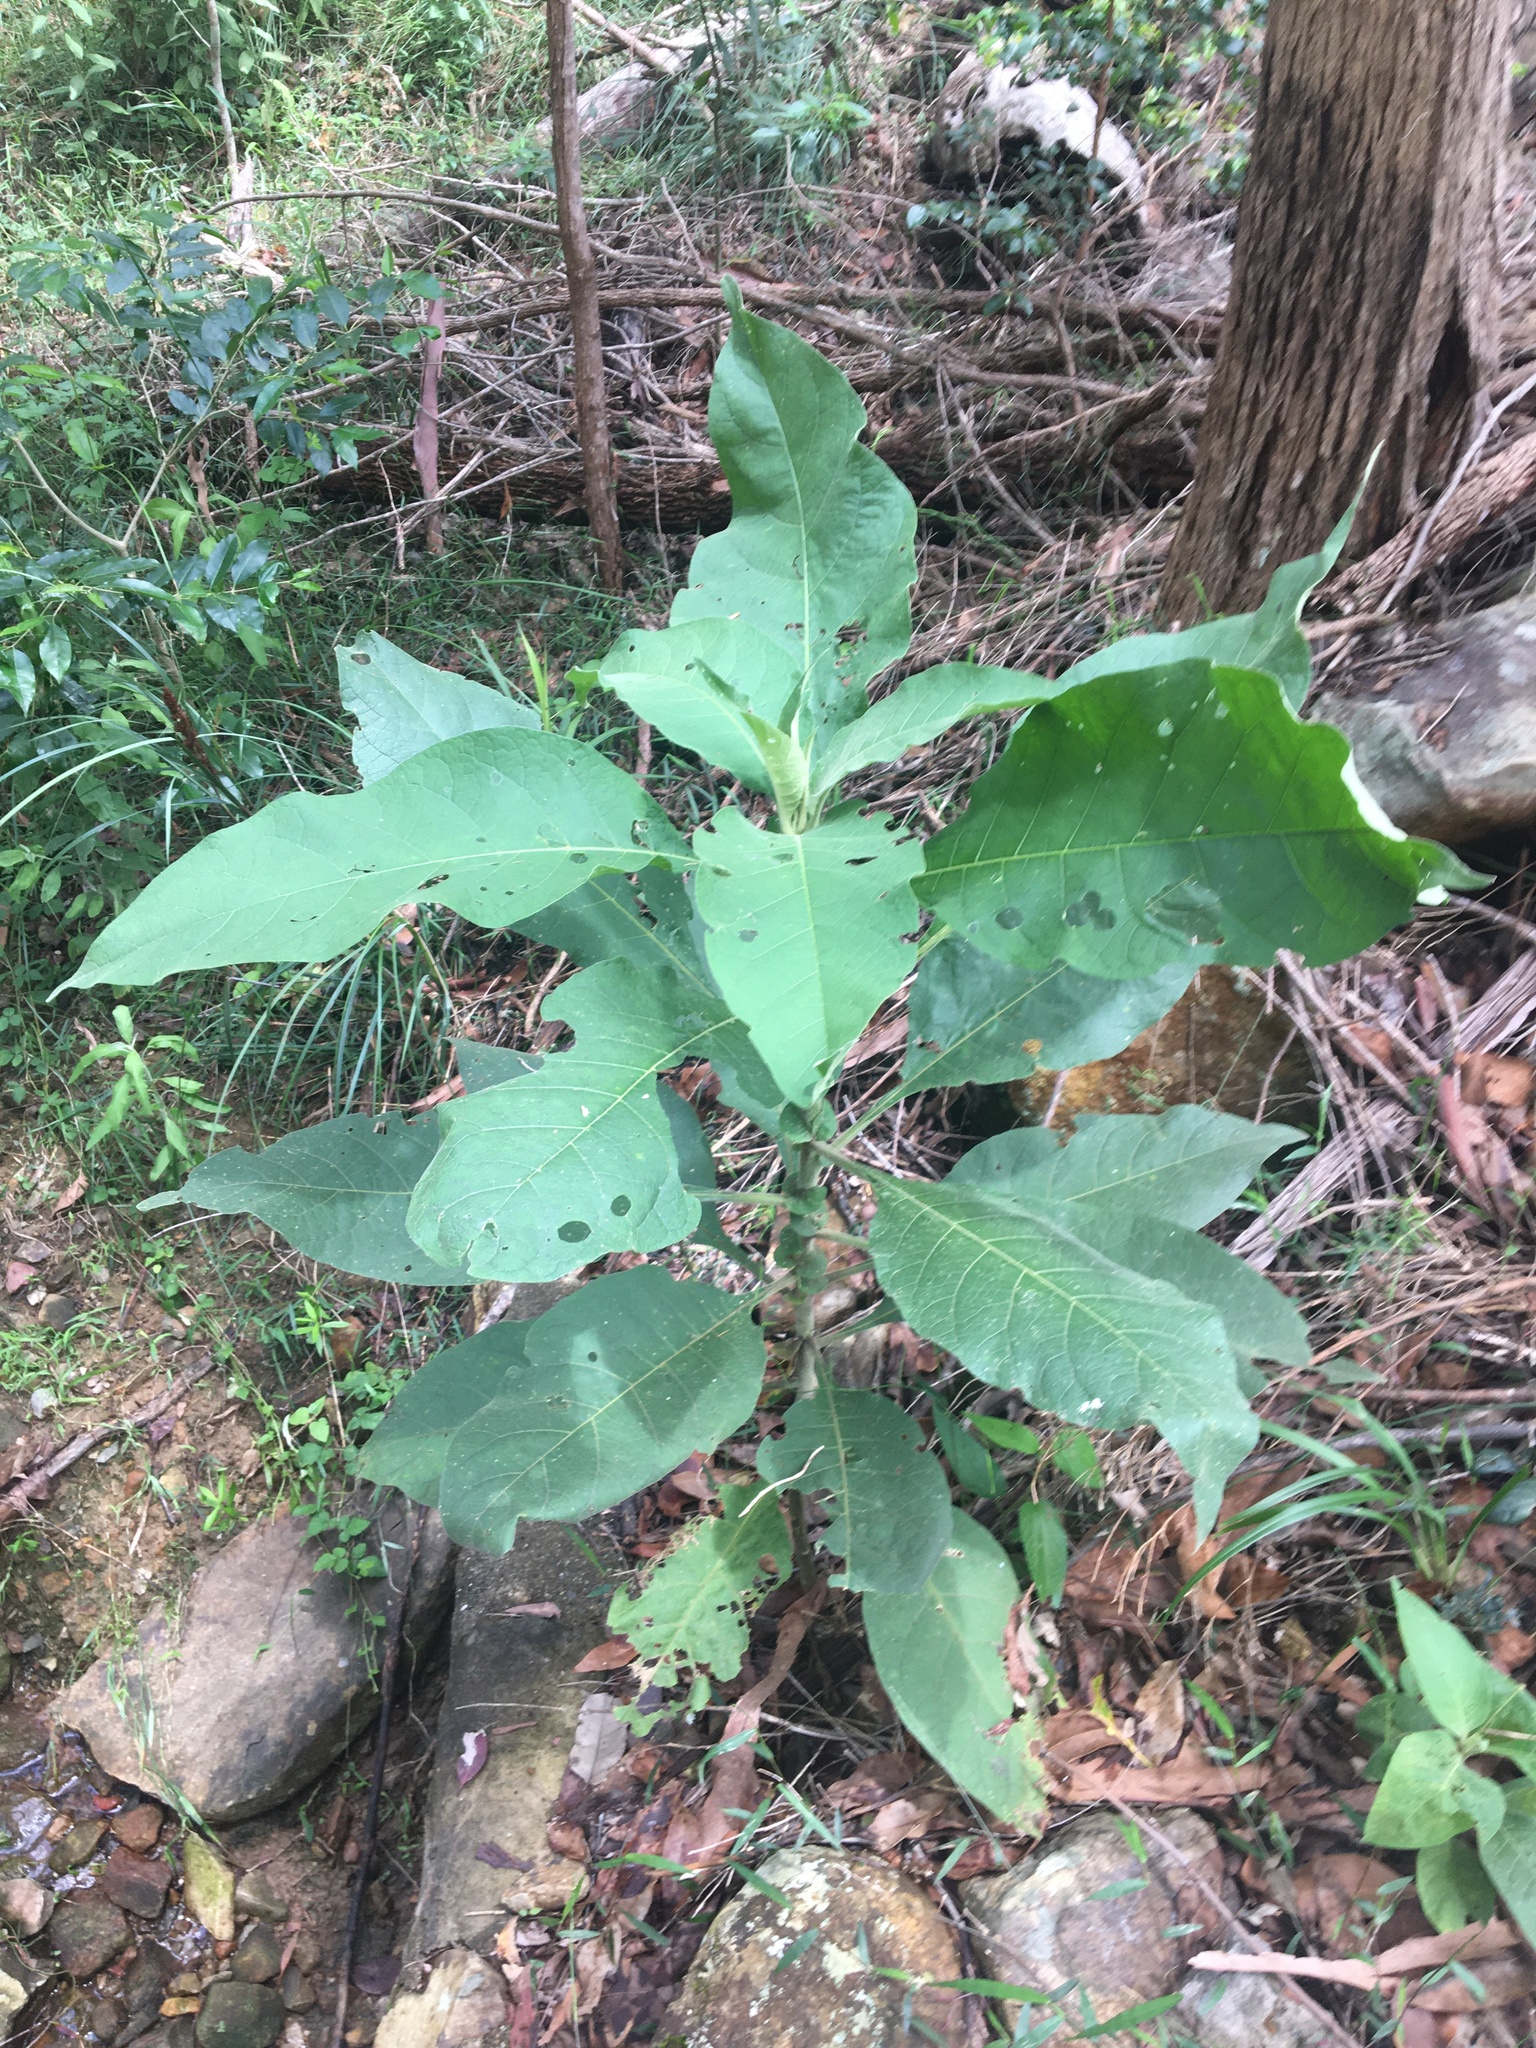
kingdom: Plantae
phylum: Tracheophyta
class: Magnoliopsida
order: Solanales
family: Solanaceae
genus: Solanum
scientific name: Solanum mauritianum
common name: Earleaf nightshade
